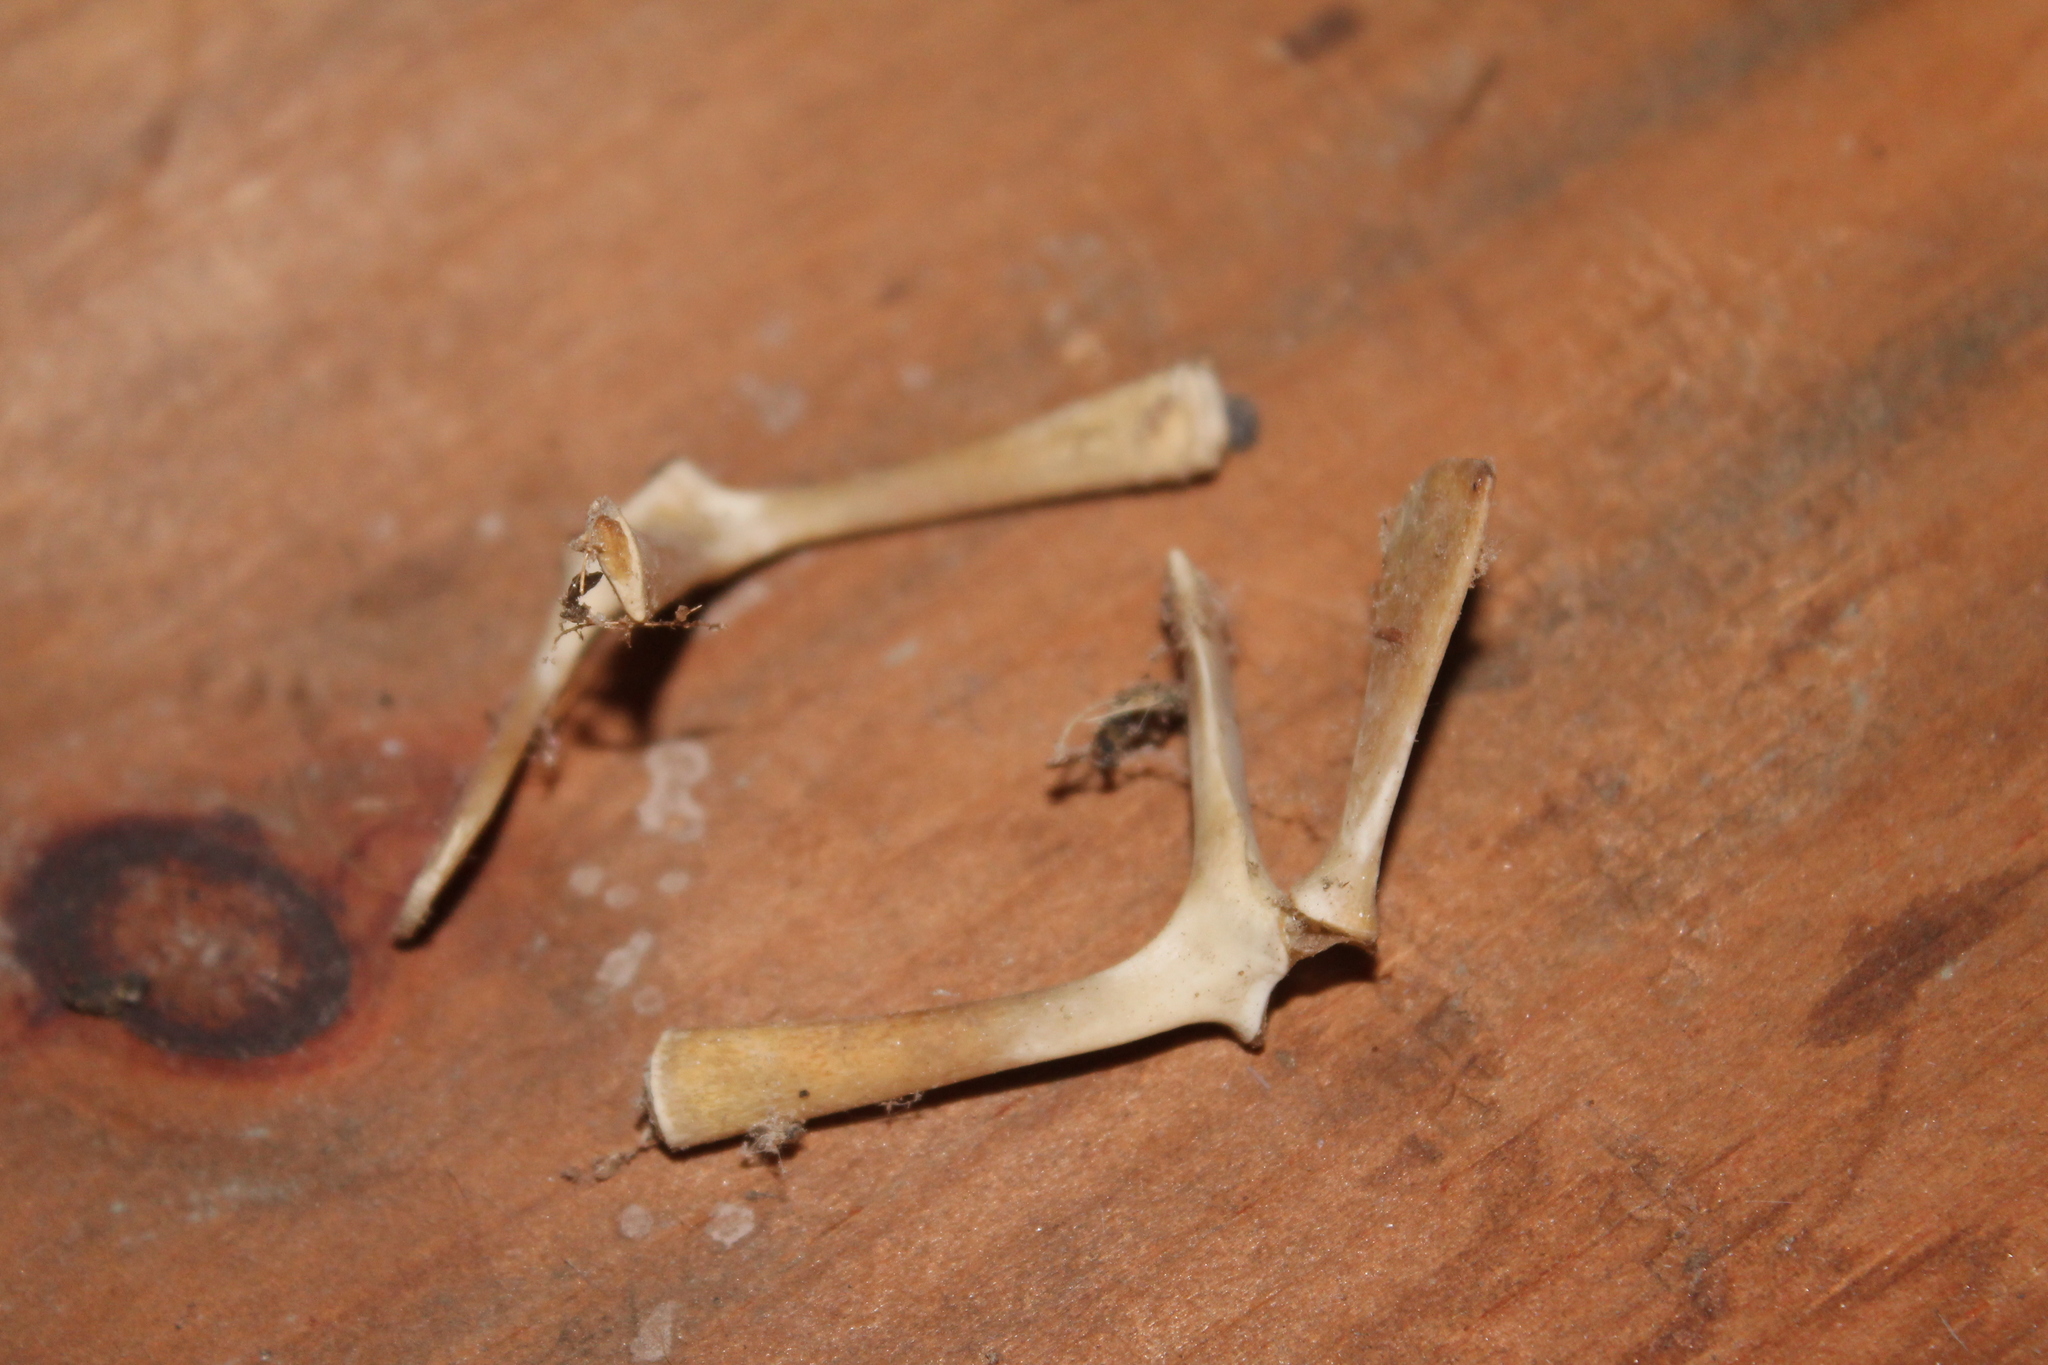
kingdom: Animalia
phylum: Chordata
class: Testudines
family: Emydidae
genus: Terrapene
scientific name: Terrapene carolina
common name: Common box turtle
